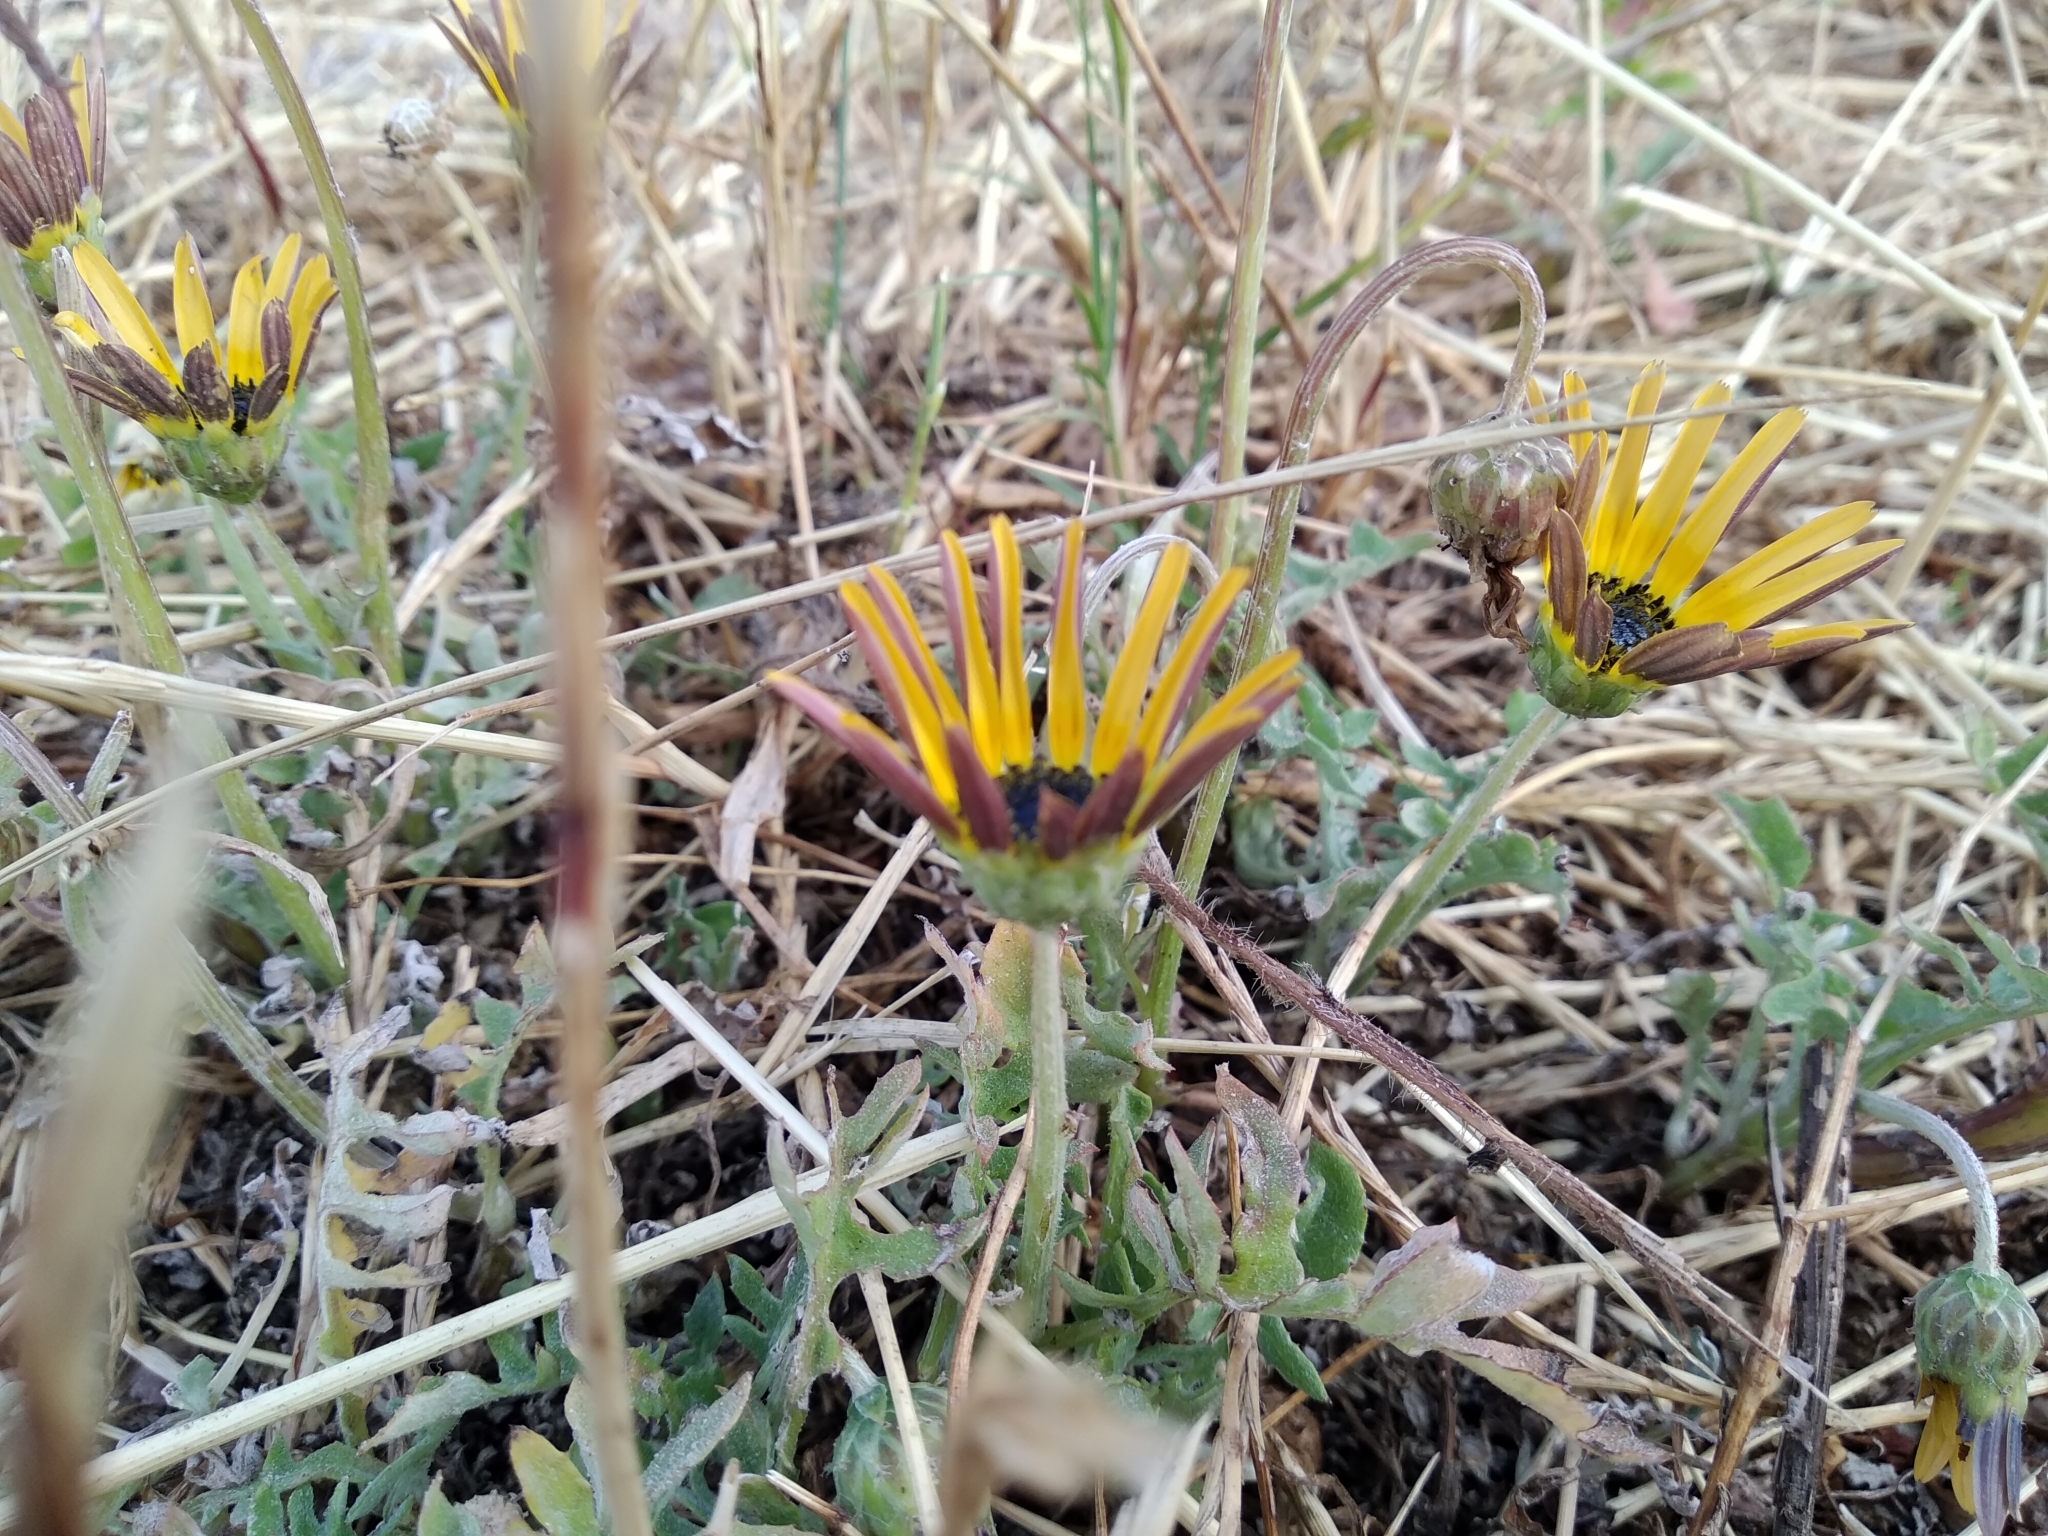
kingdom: Plantae
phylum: Tracheophyta
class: Magnoliopsida
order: Asterales
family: Asteraceae
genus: Arctotheca
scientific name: Arctotheca calendula
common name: Capeweed
